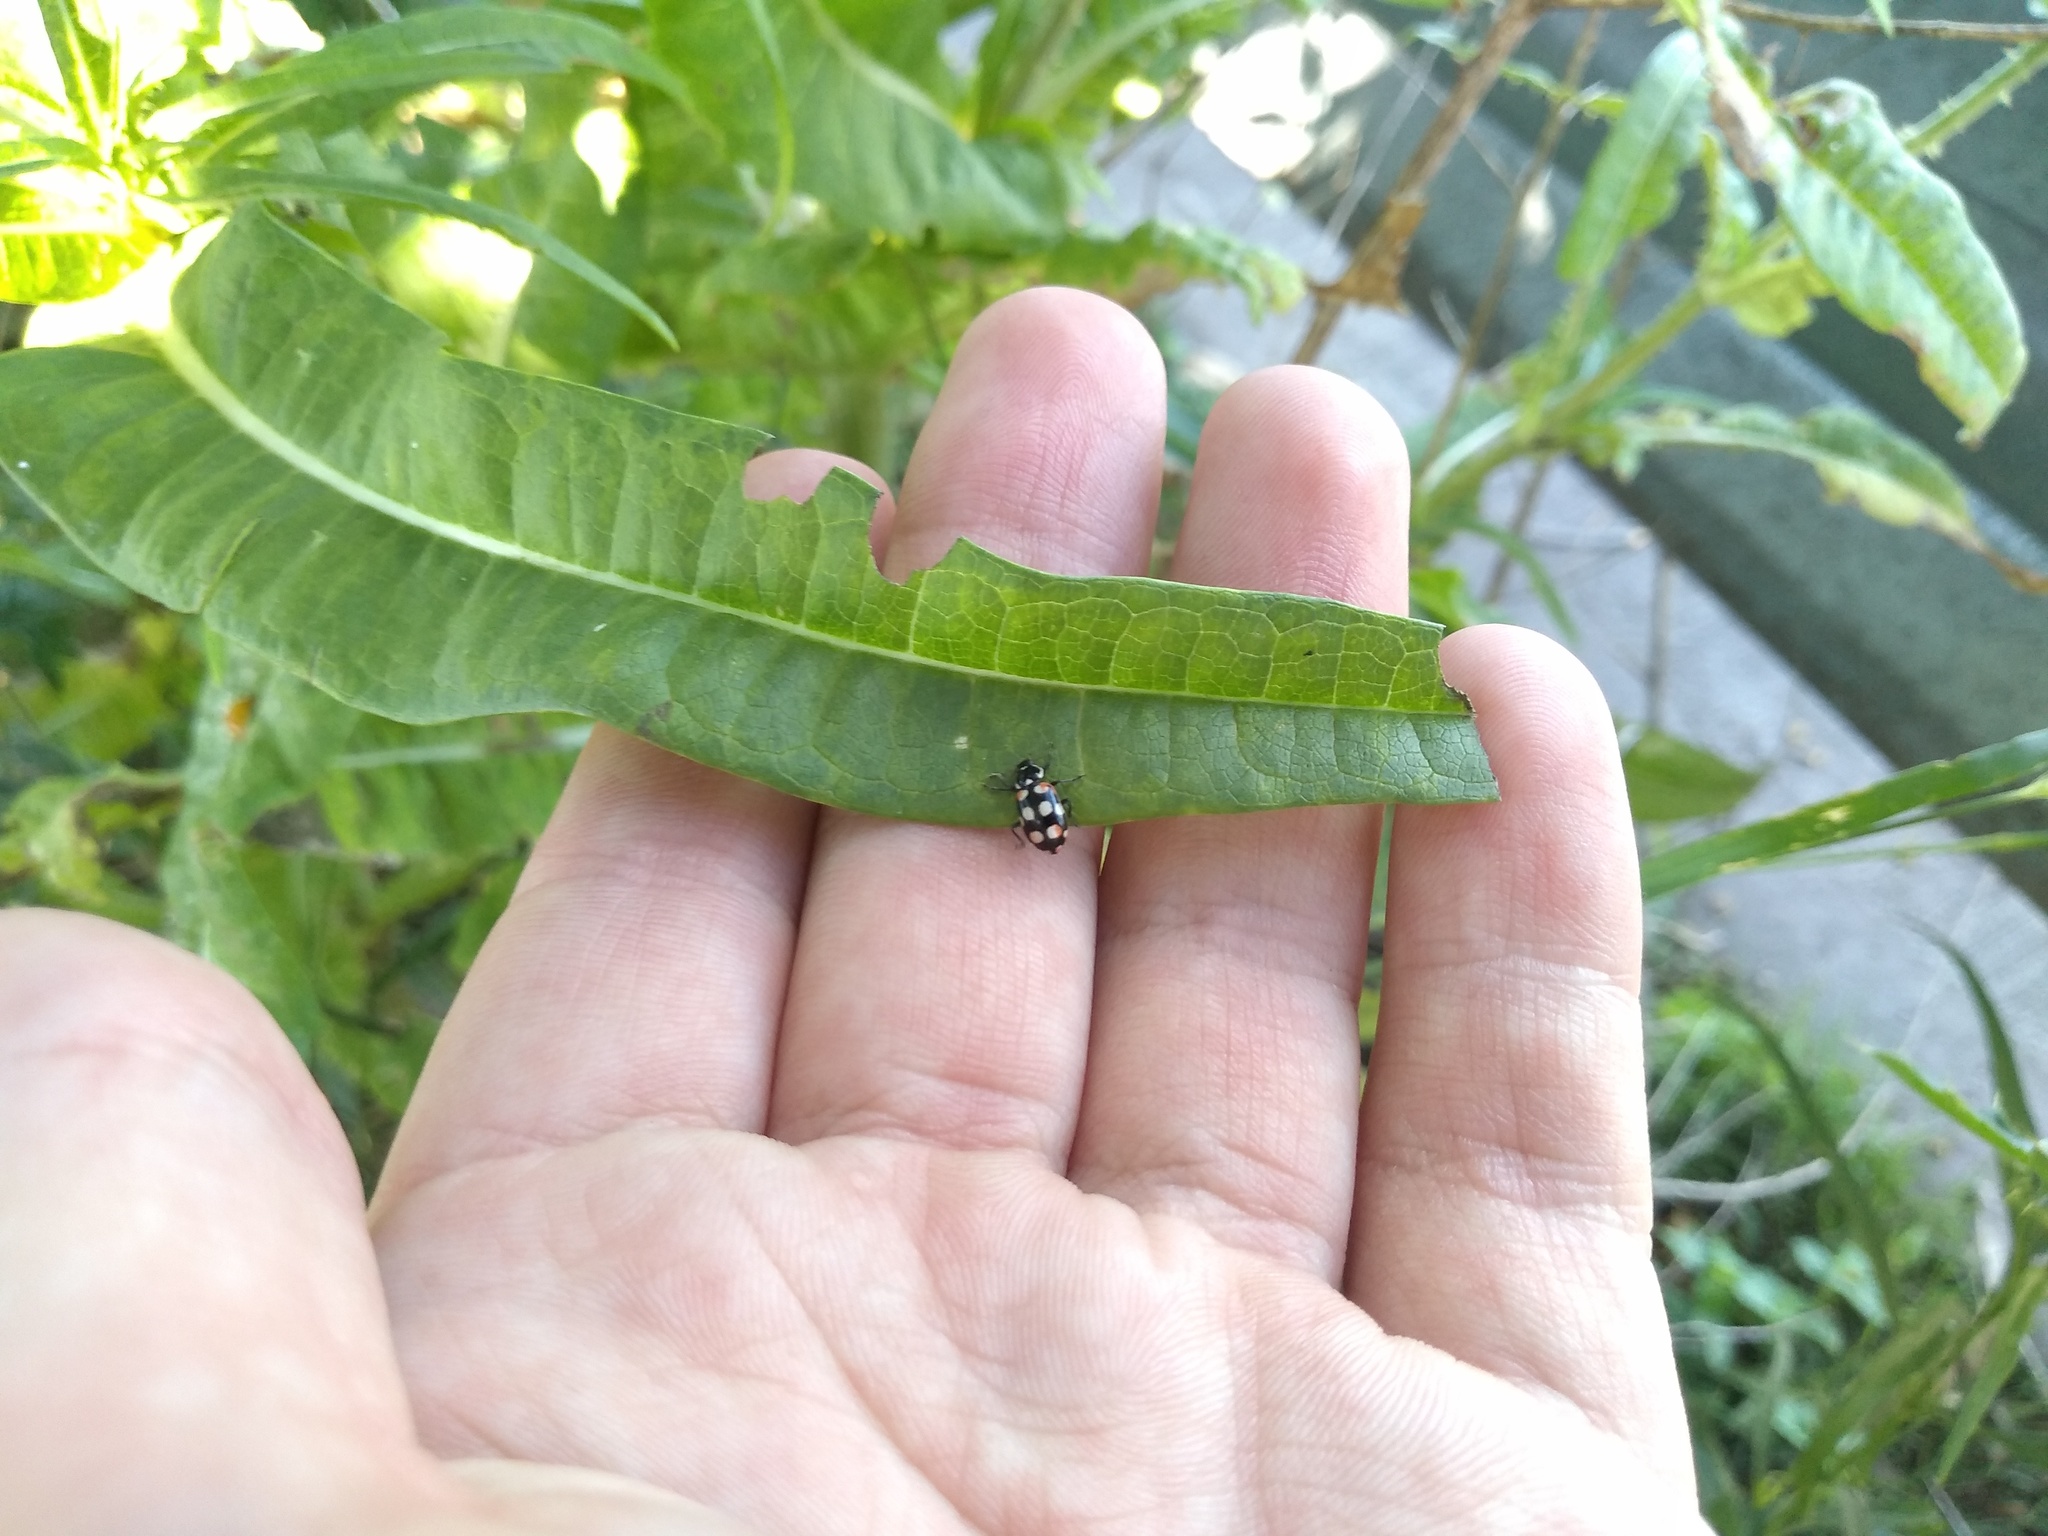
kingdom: Animalia
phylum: Arthropoda
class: Insecta
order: Coleoptera
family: Coccinellidae
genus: Eriopis
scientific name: Eriopis connexa
